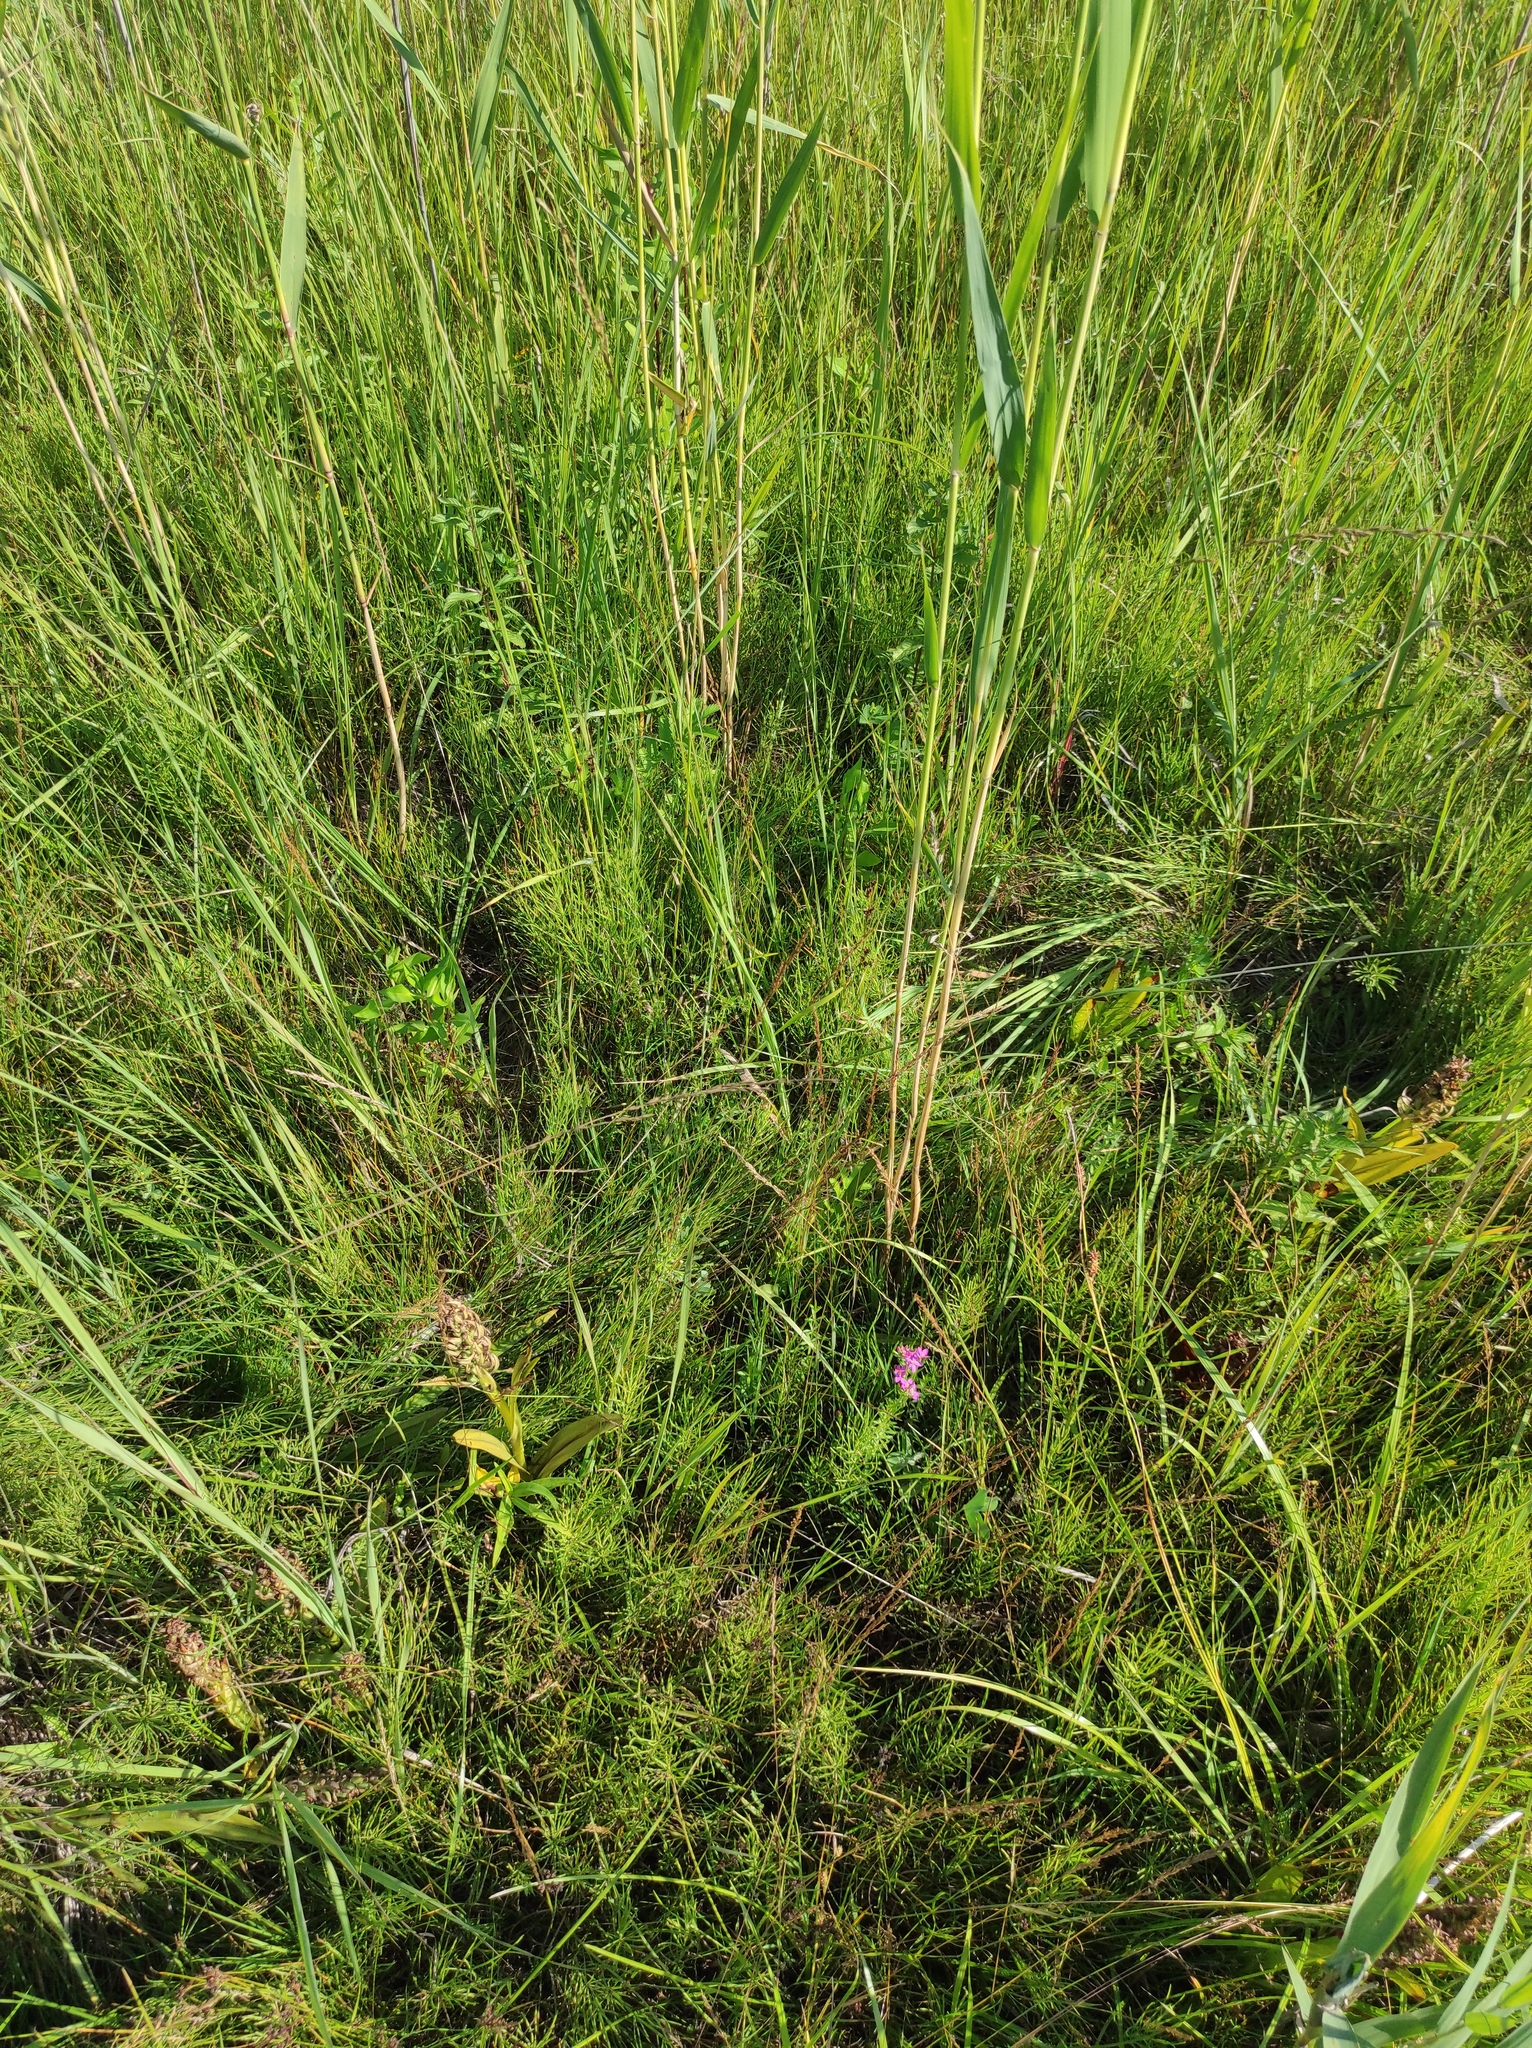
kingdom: Plantae
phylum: Tracheophyta
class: Polypodiopsida
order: Equisetales
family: Equisetaceae
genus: Equisetum
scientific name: Equisetum arvense
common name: Field horsetail
